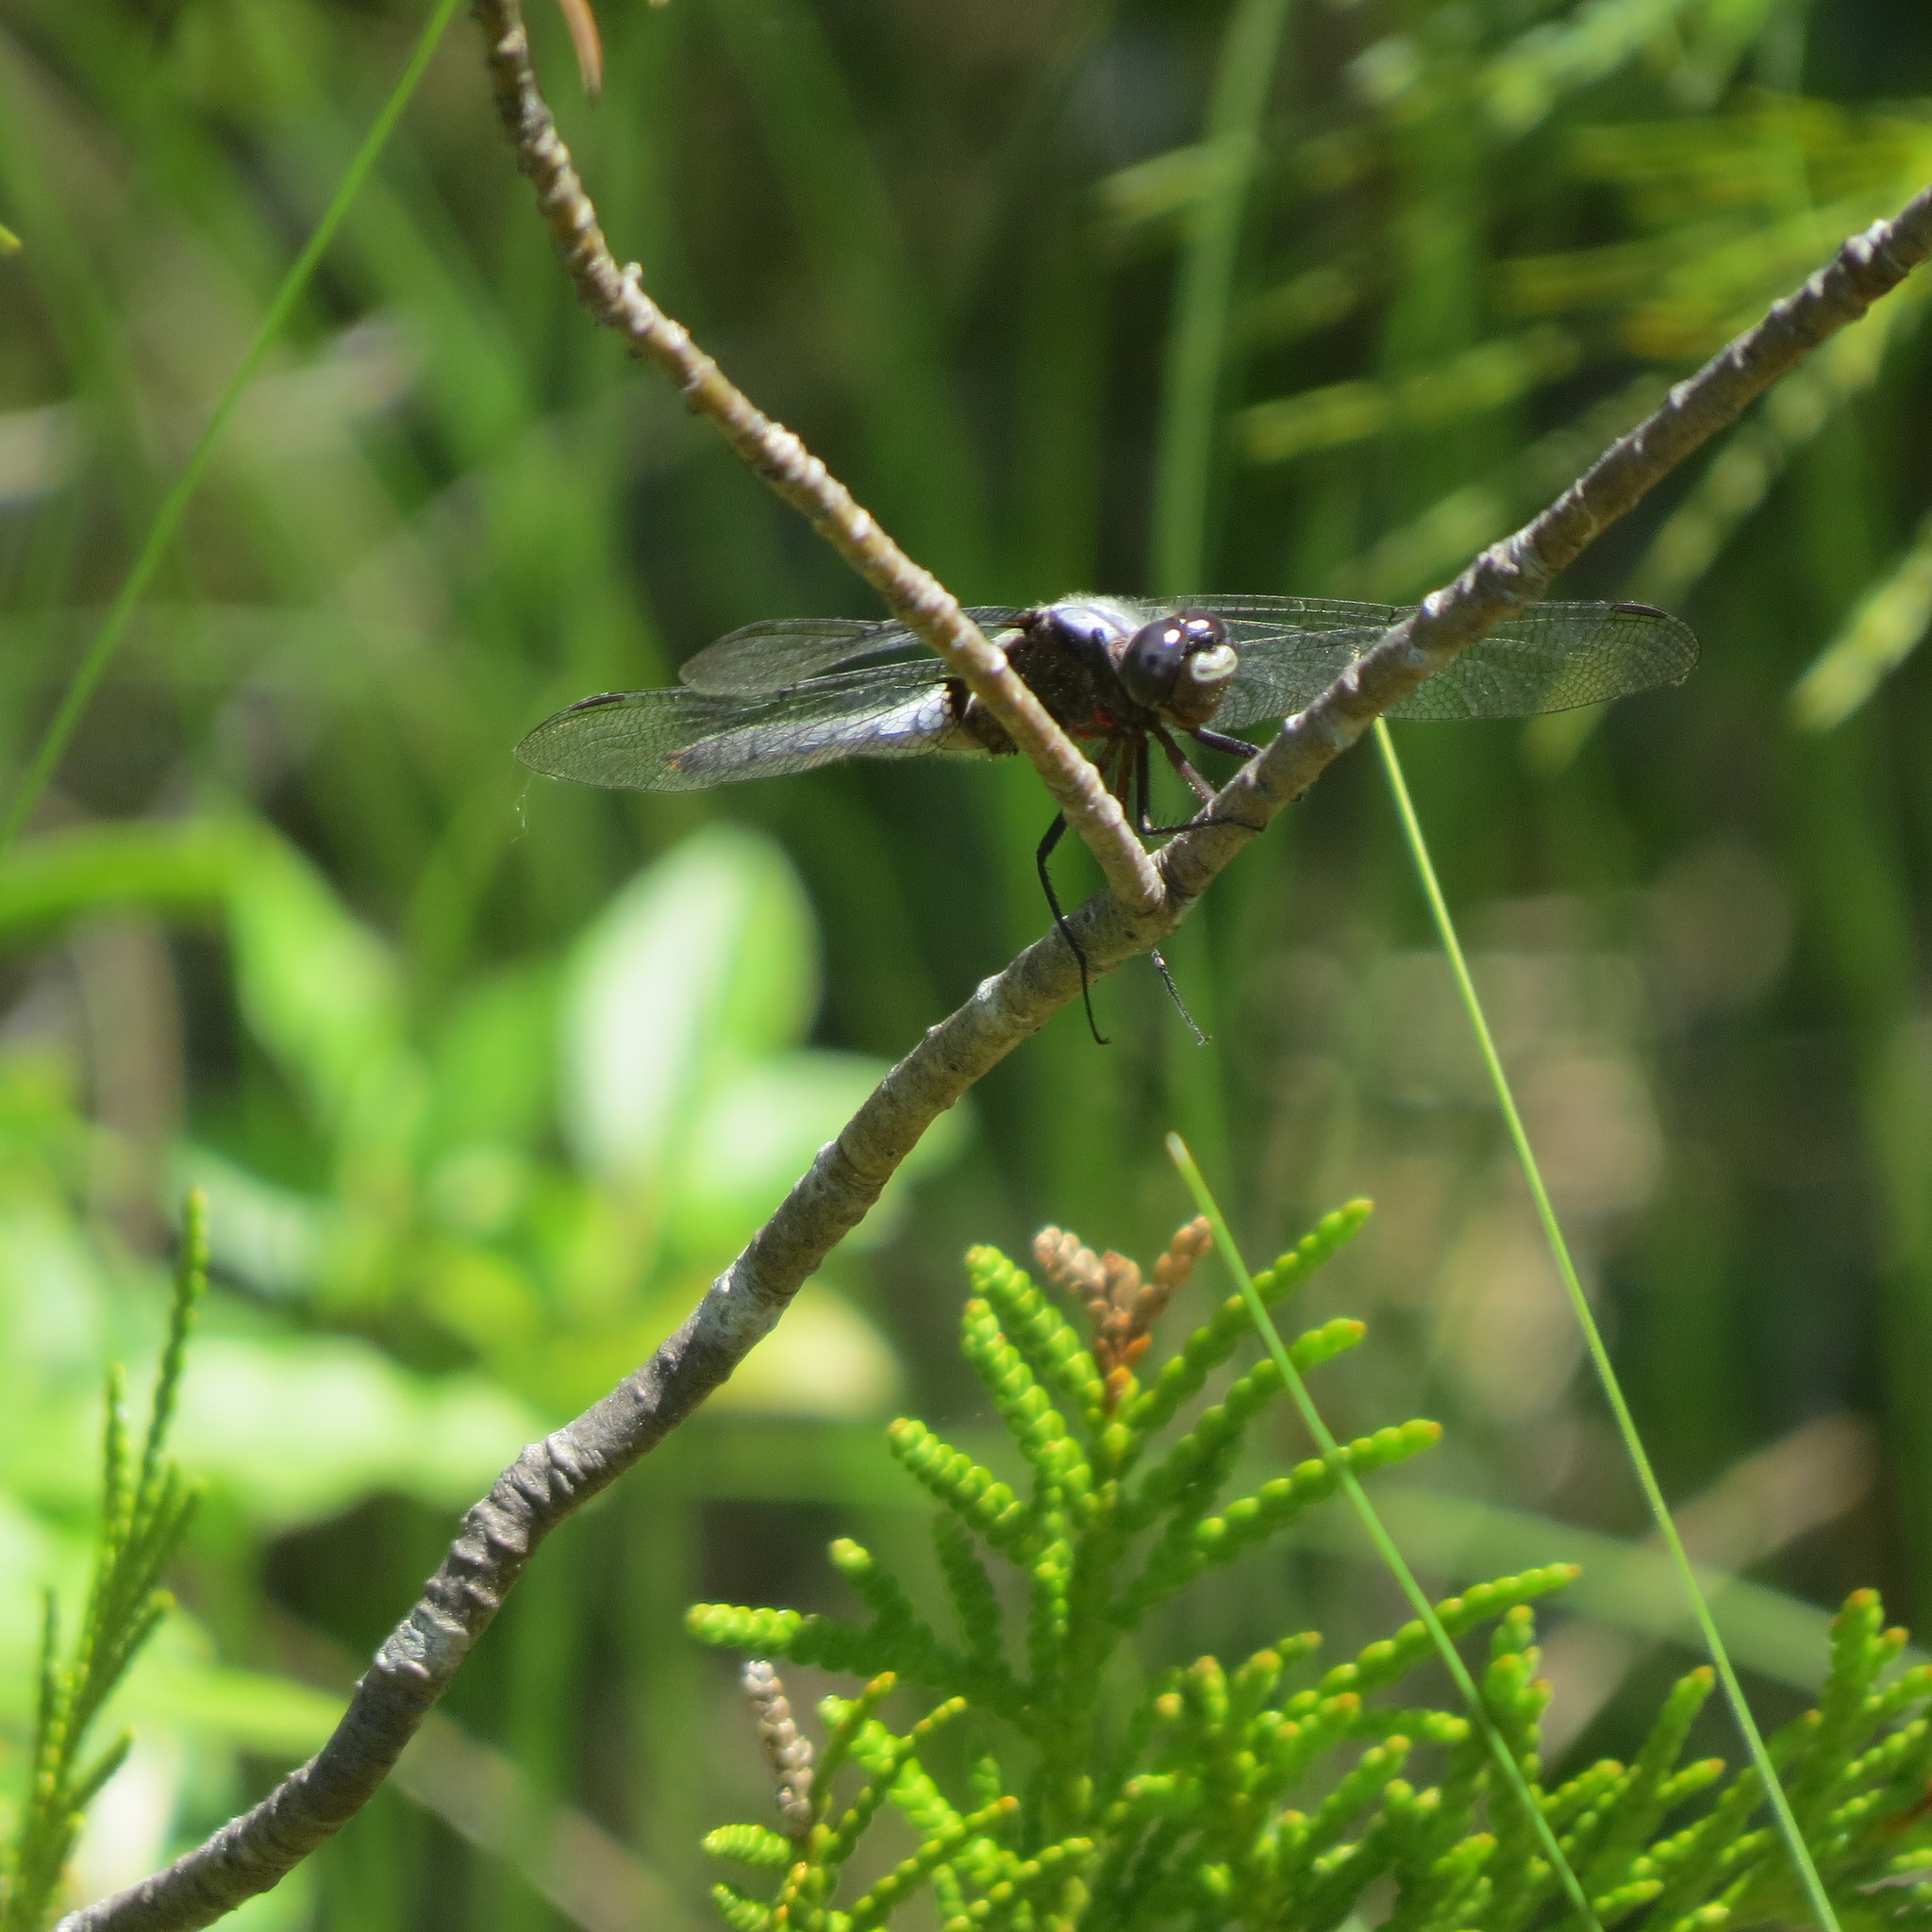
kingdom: Animalia
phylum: Arthropoda
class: Insecta
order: Odonata
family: Libellulidae
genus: Ladona
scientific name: Ladona julia
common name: Chalk-fronted corporal
